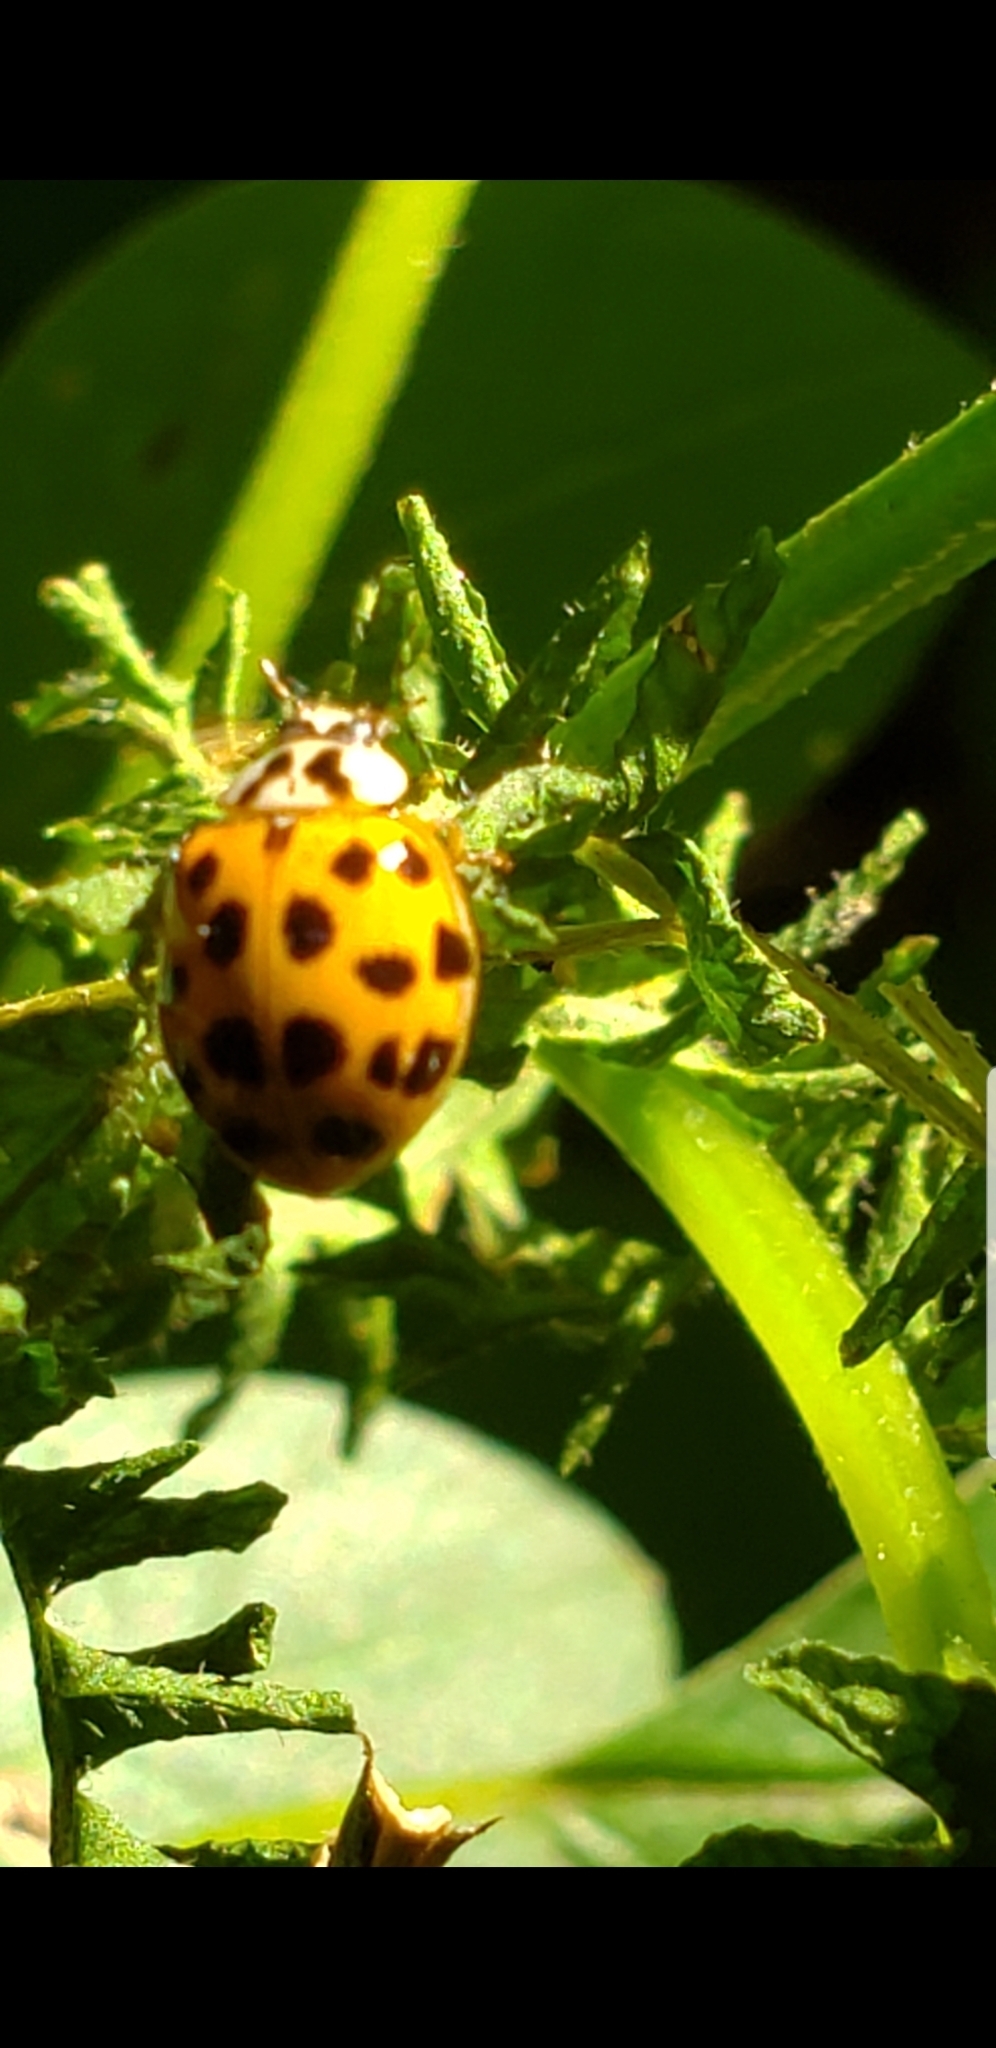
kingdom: Animalia
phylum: Arthropoda
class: Insecta
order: Coleoptera
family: Coccinellidae
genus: Harmonia
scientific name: Harmonia axyridis
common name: Harlequin ladybird
